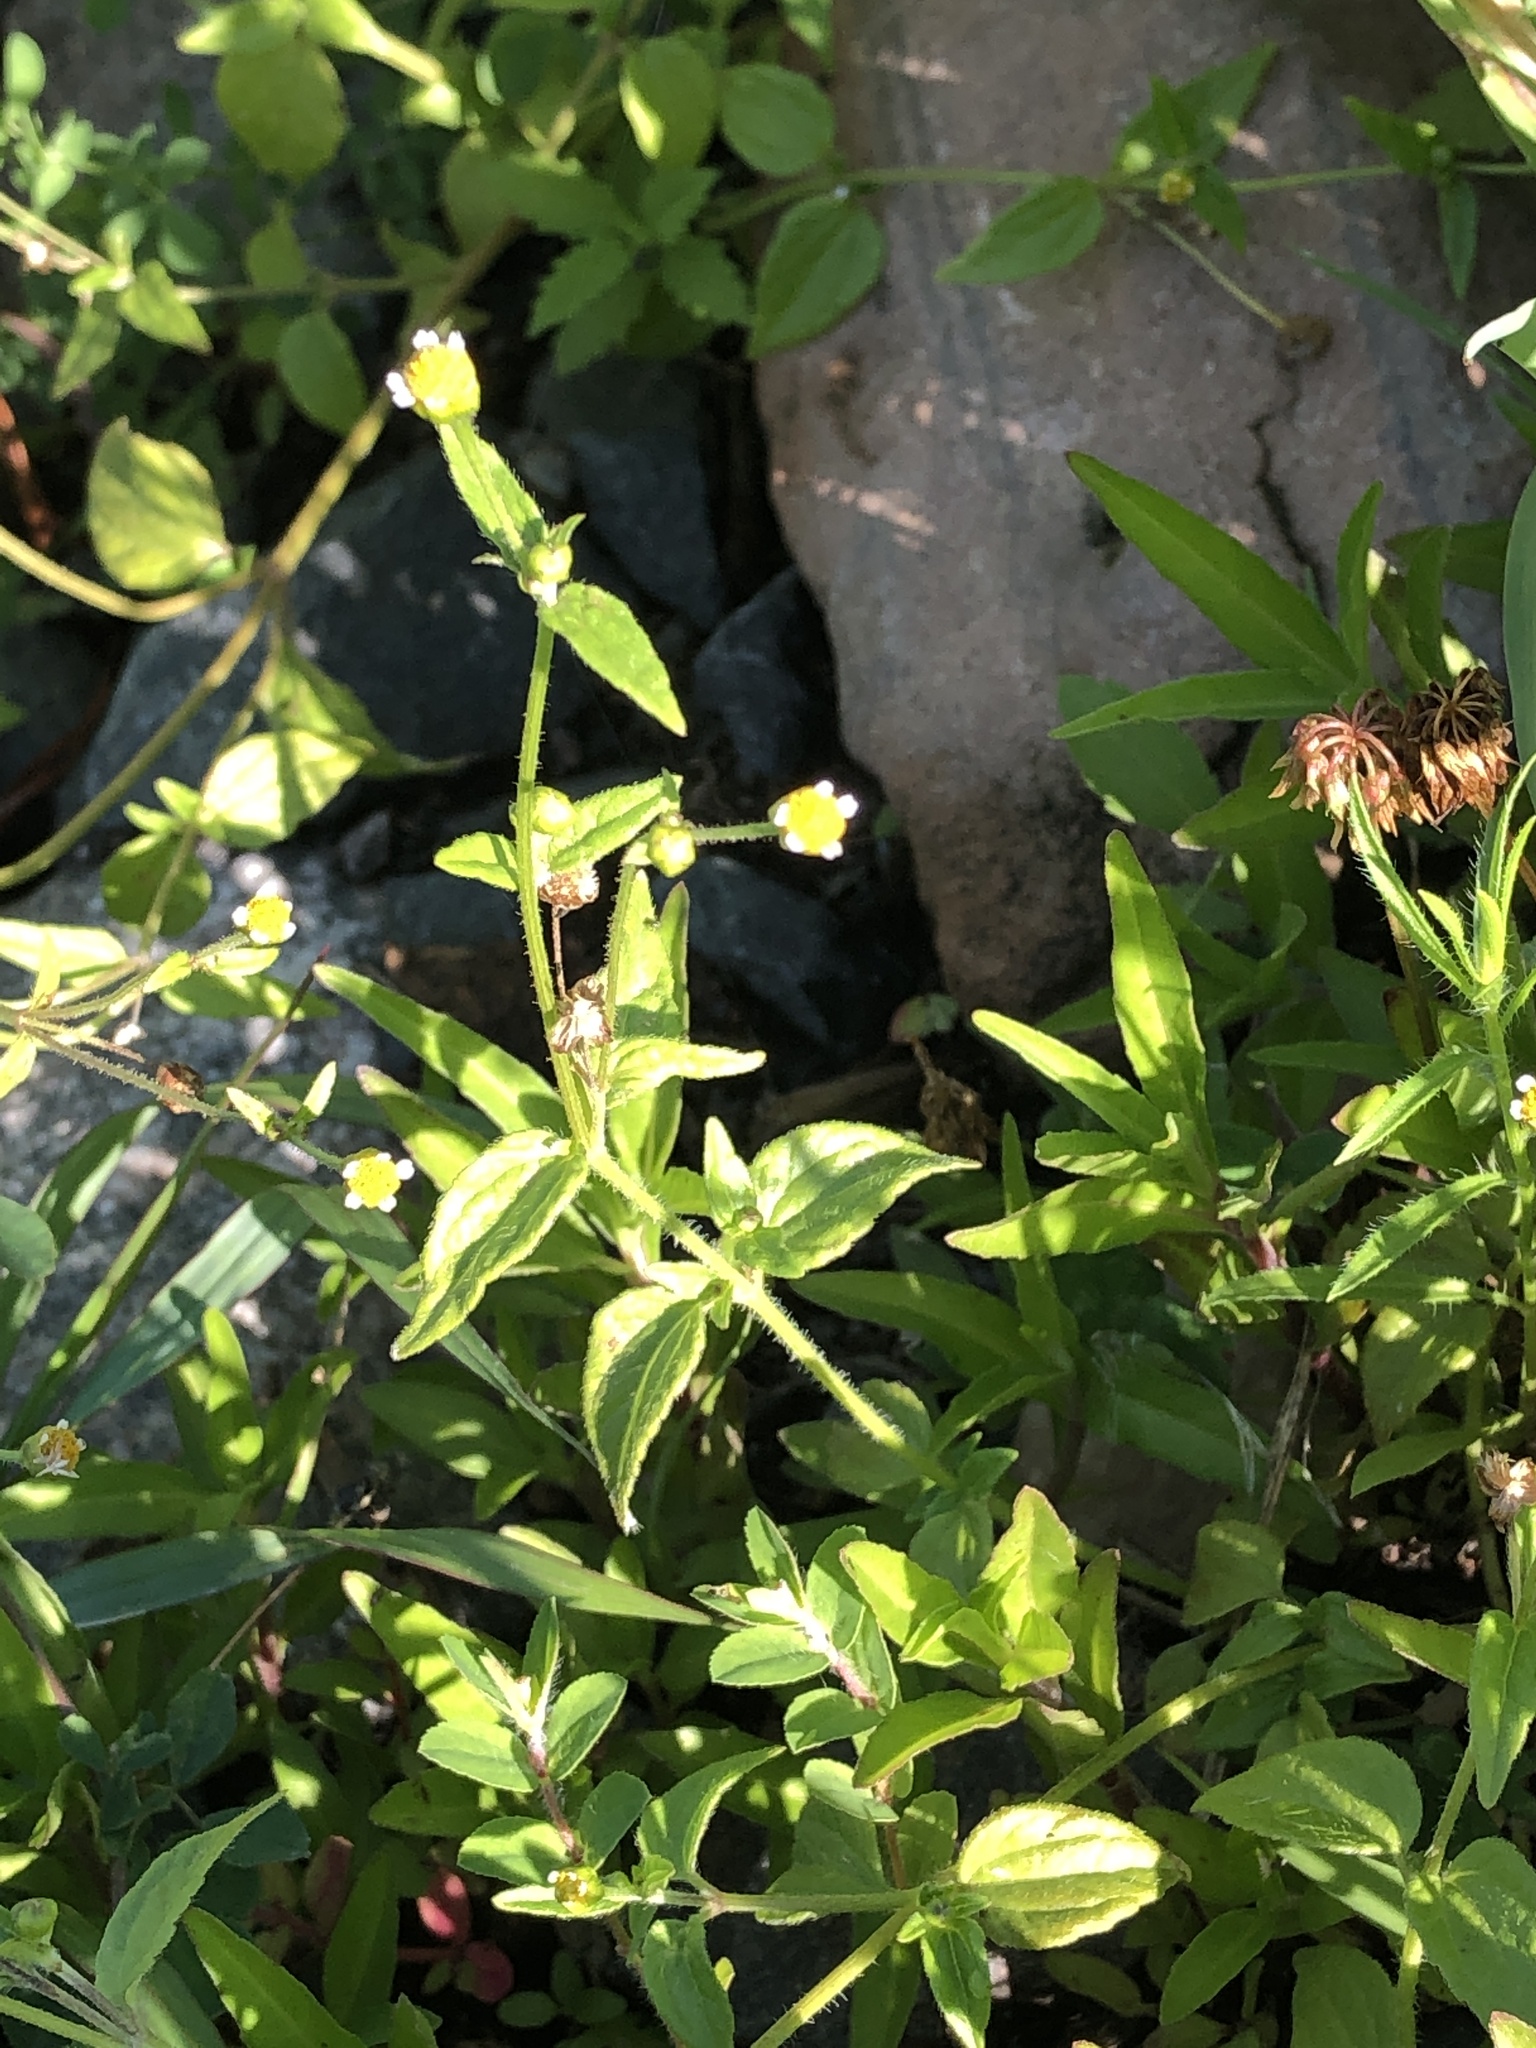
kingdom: Plantae
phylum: Tracheophyta
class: Magnoliopsida
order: Asterales
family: Asteraceae
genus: Galinsoga
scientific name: Galinsoga parviflora
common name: Gallant soldier
